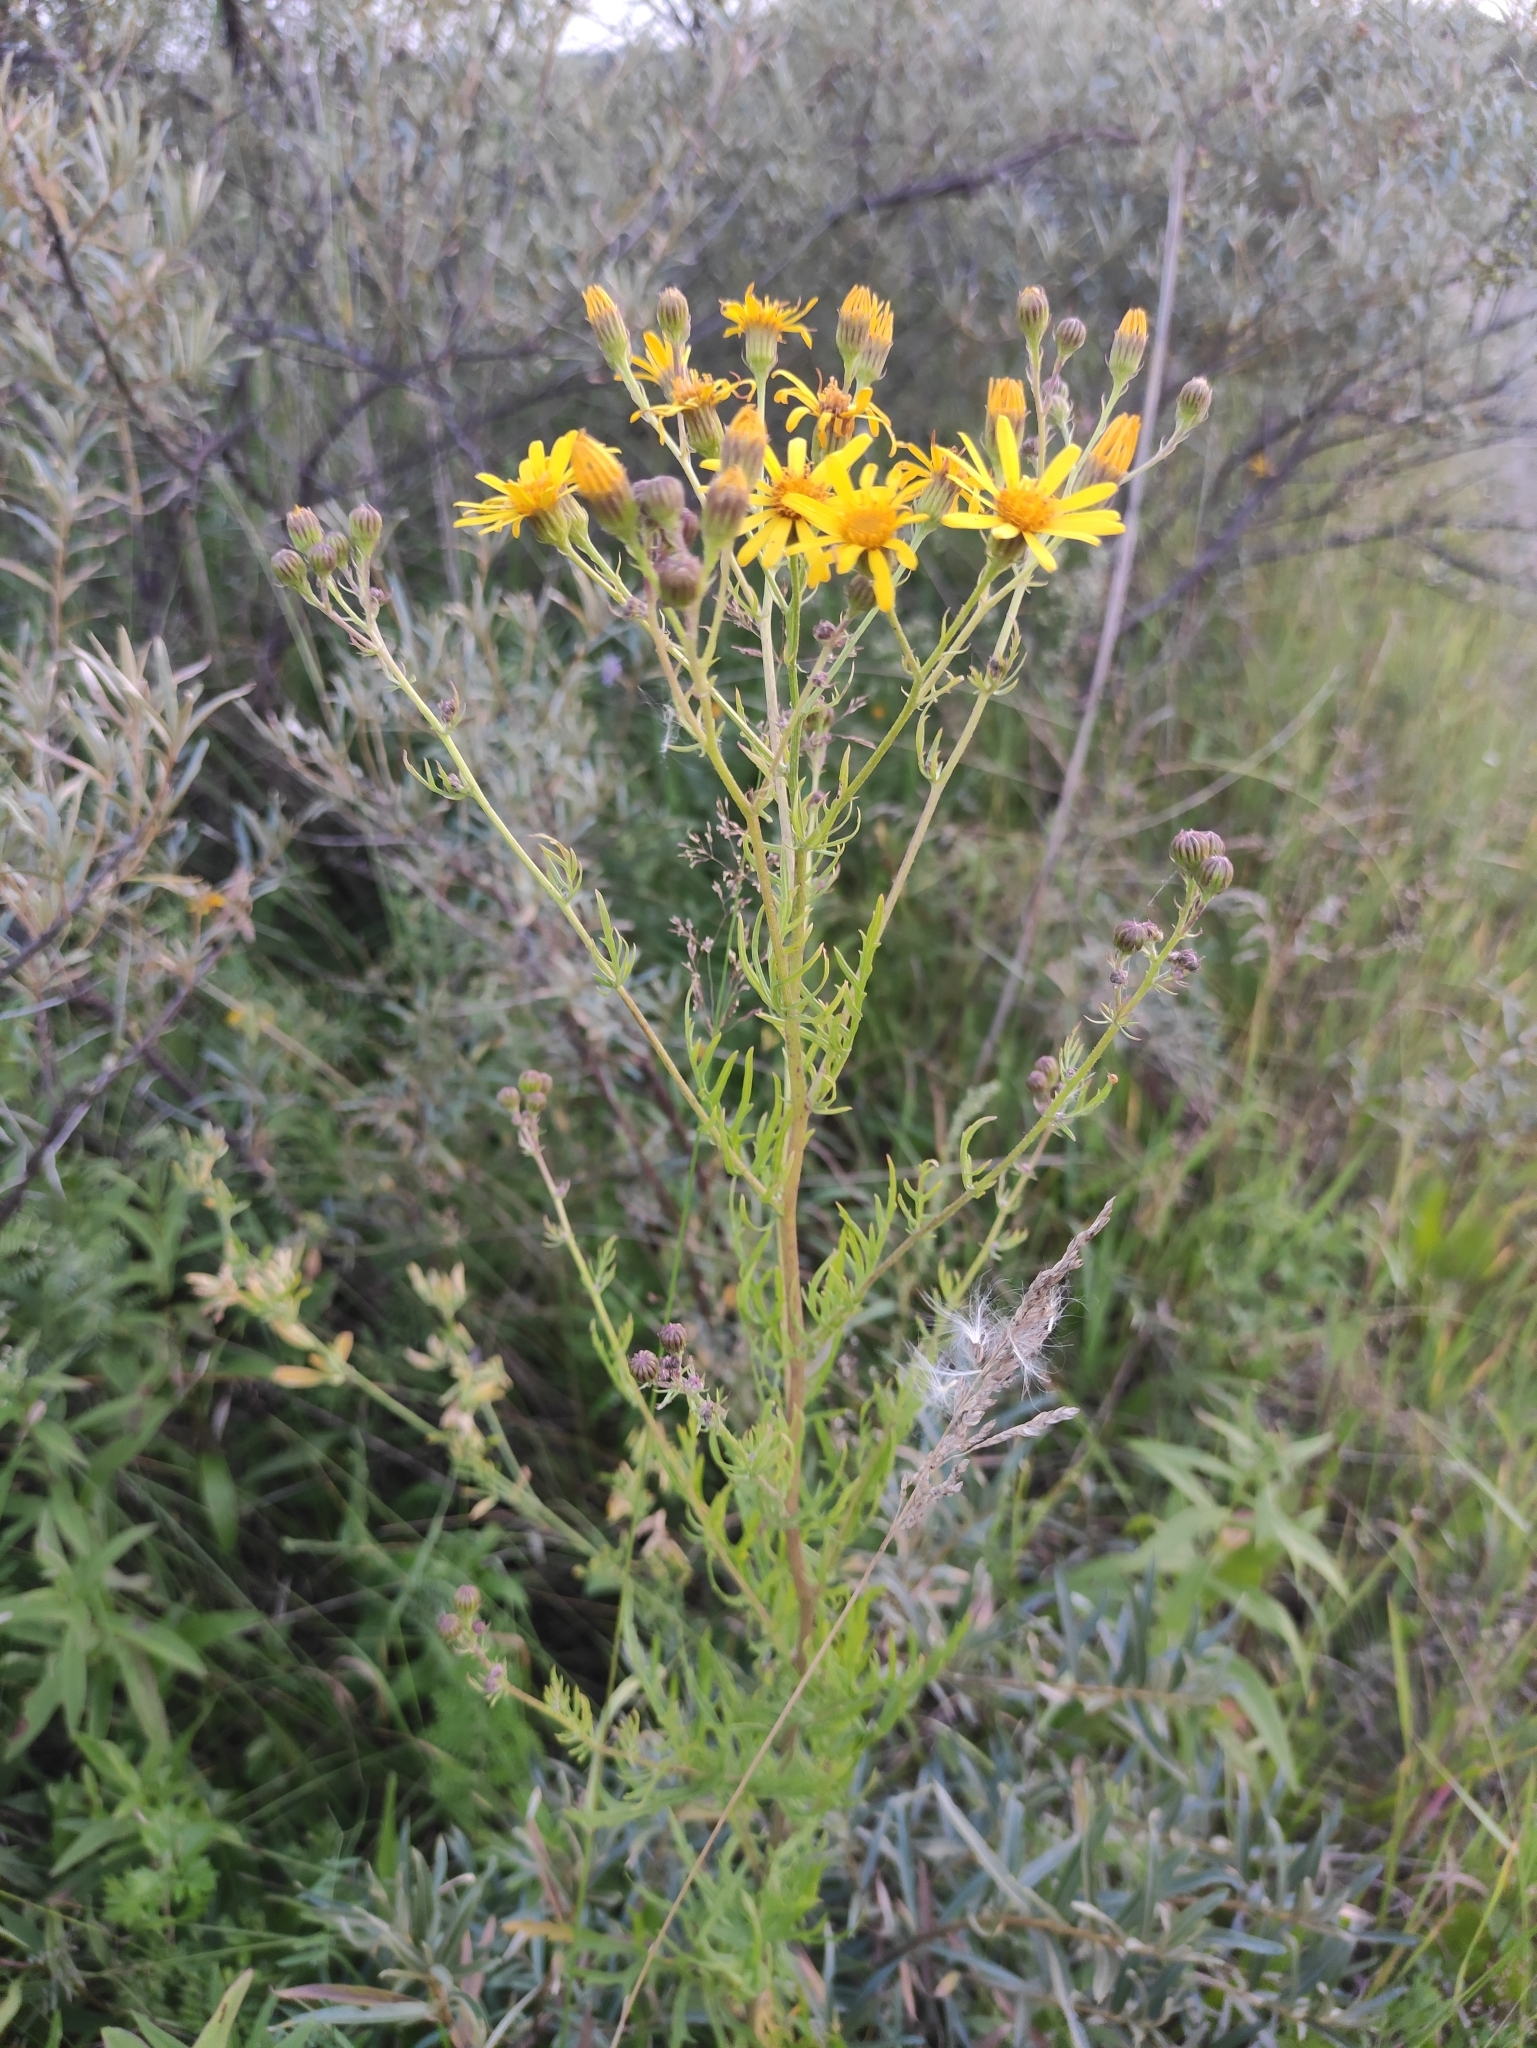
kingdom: Plantae
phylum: Tracheophyta
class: Magnoliopsida
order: Asterales
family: Asteraceae
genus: Jacobaea
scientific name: Jacobaea erucifolia
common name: Hoary ragwort
